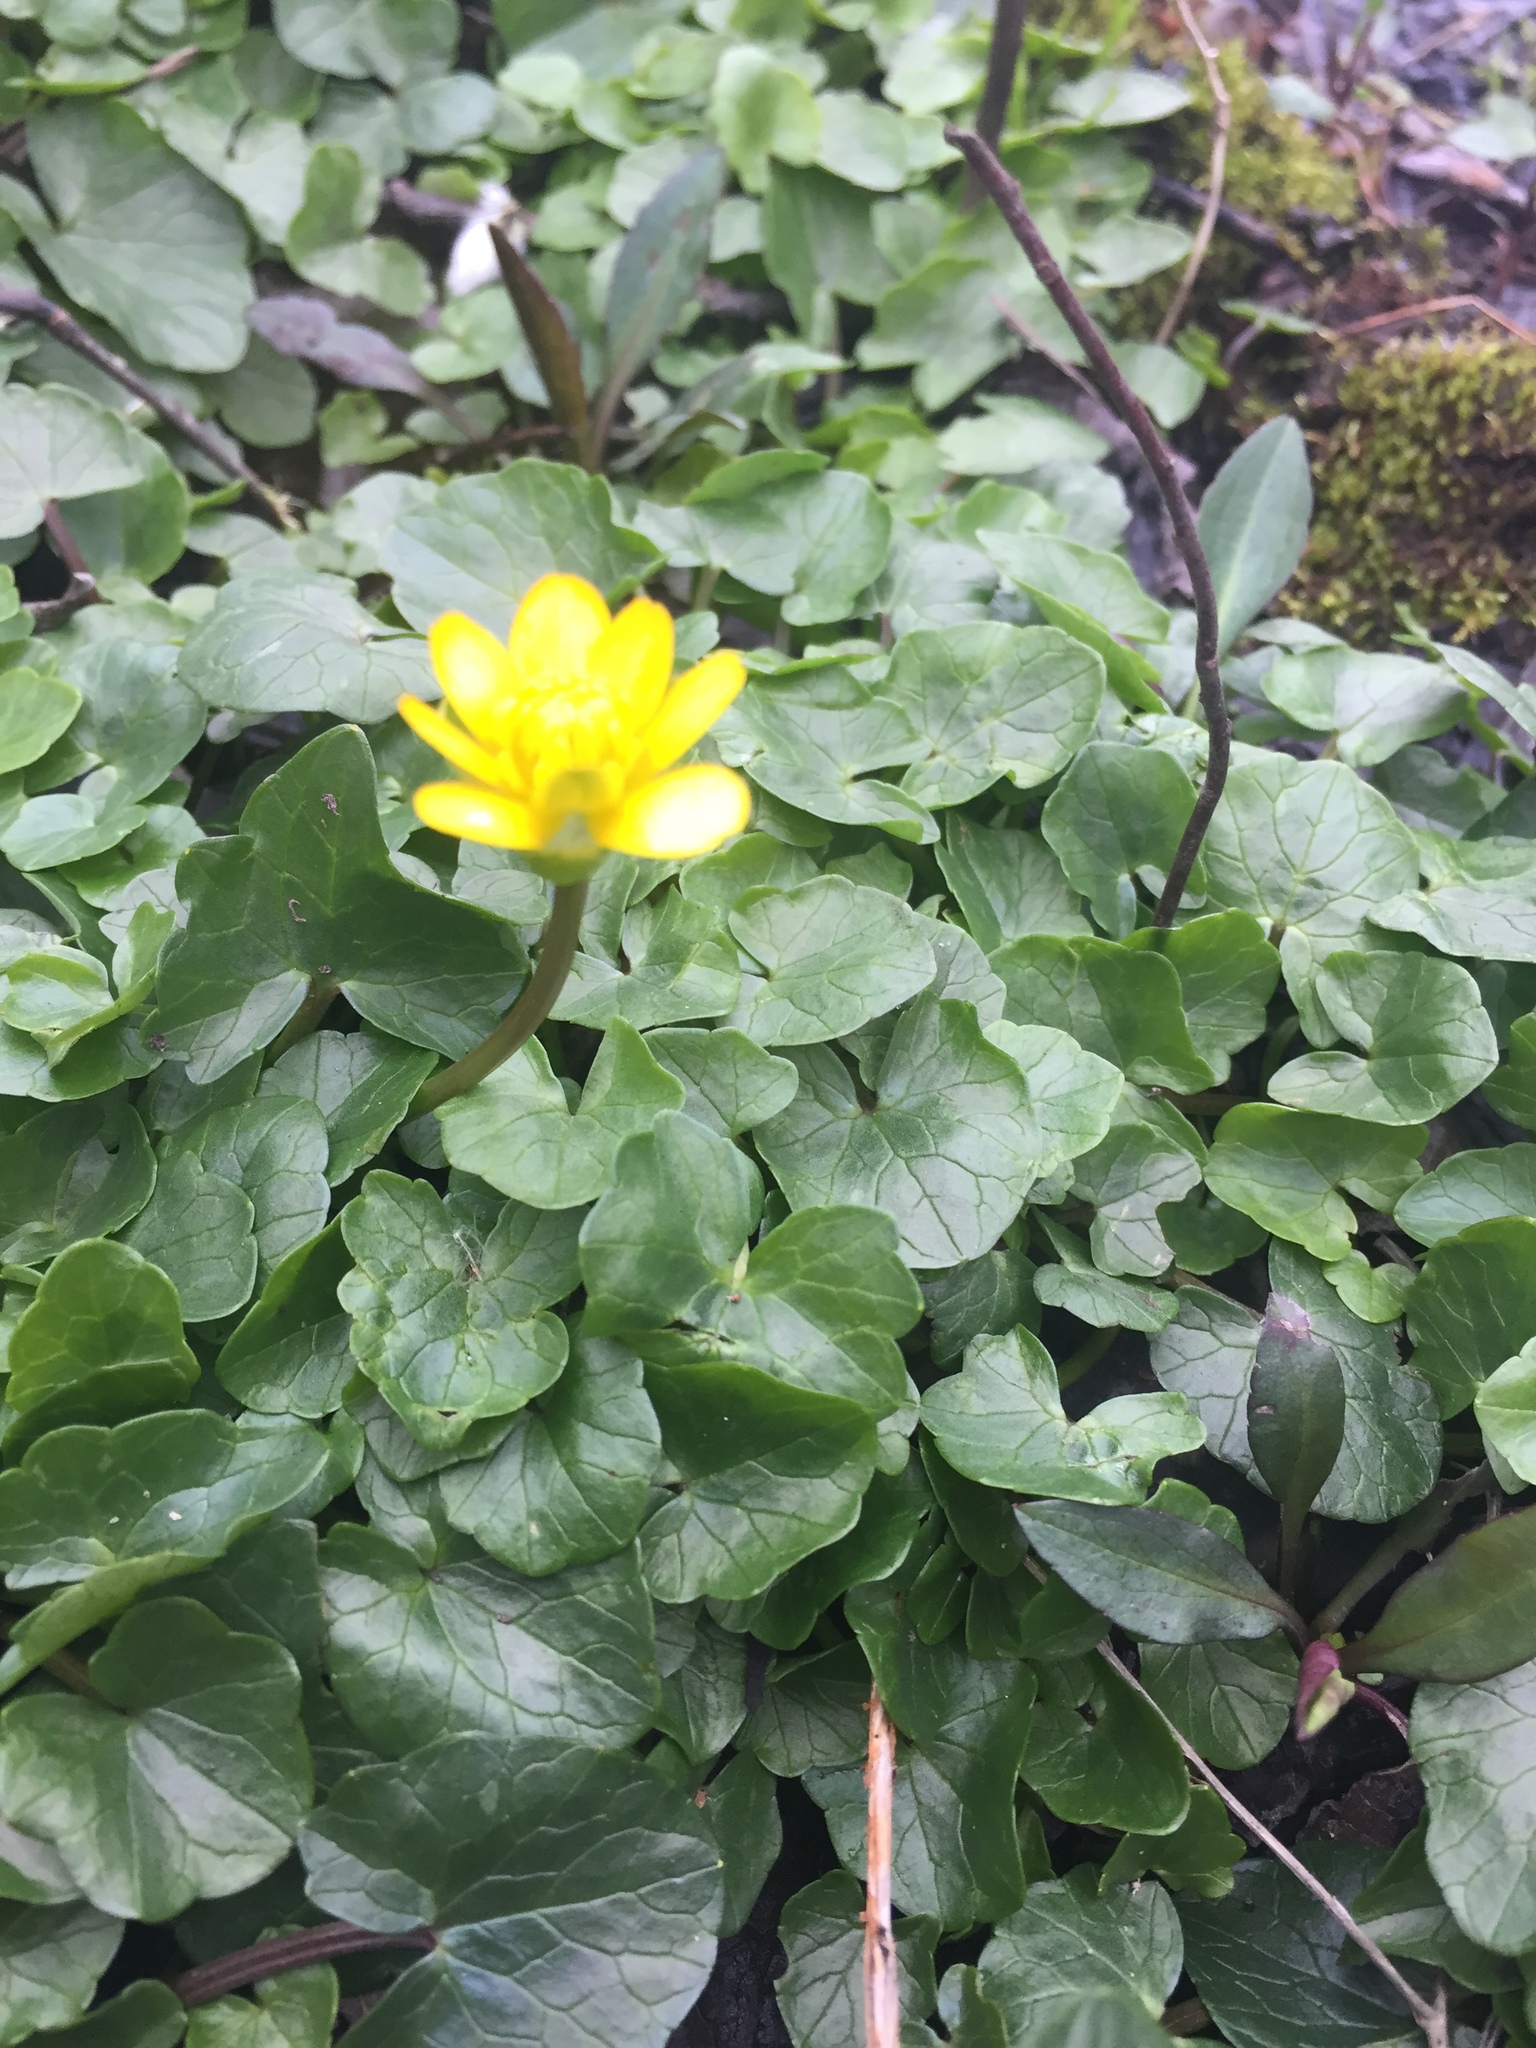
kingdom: Plantae
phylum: Tracheophyta
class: Magnoliopsida
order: Ranunculales
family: Ranunculaceae
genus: Ficaria
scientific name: Ficaria verna
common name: Lesser celandine
